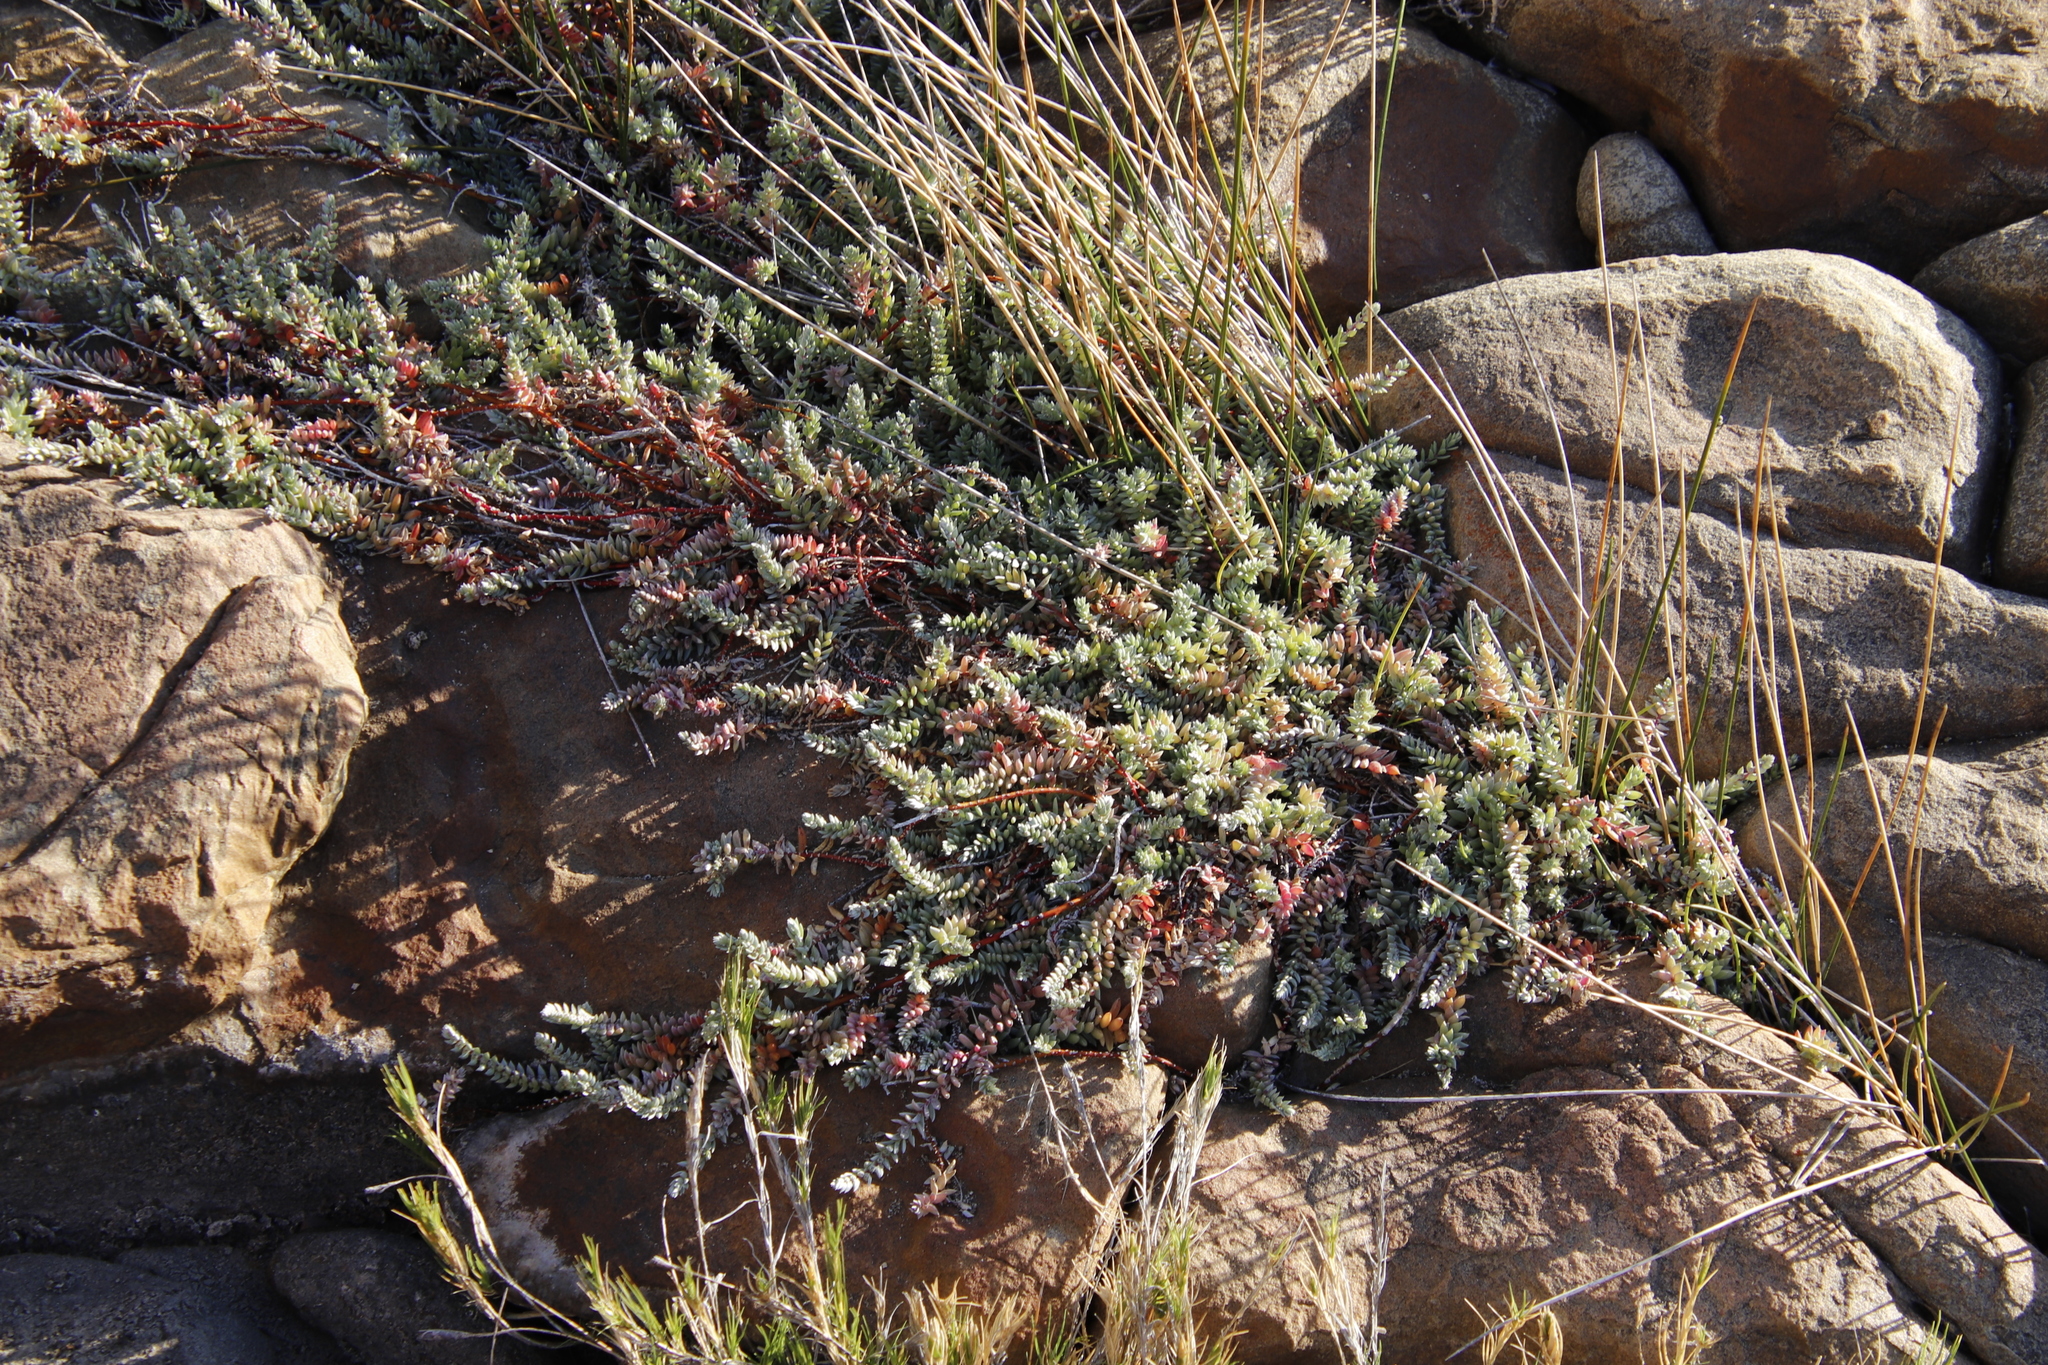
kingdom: Plantae
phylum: Tracheophyta
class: Magnoliopsida
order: Caryophyllales
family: Amaranthaceae
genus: Chenolea
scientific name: Chenolea diffusa
